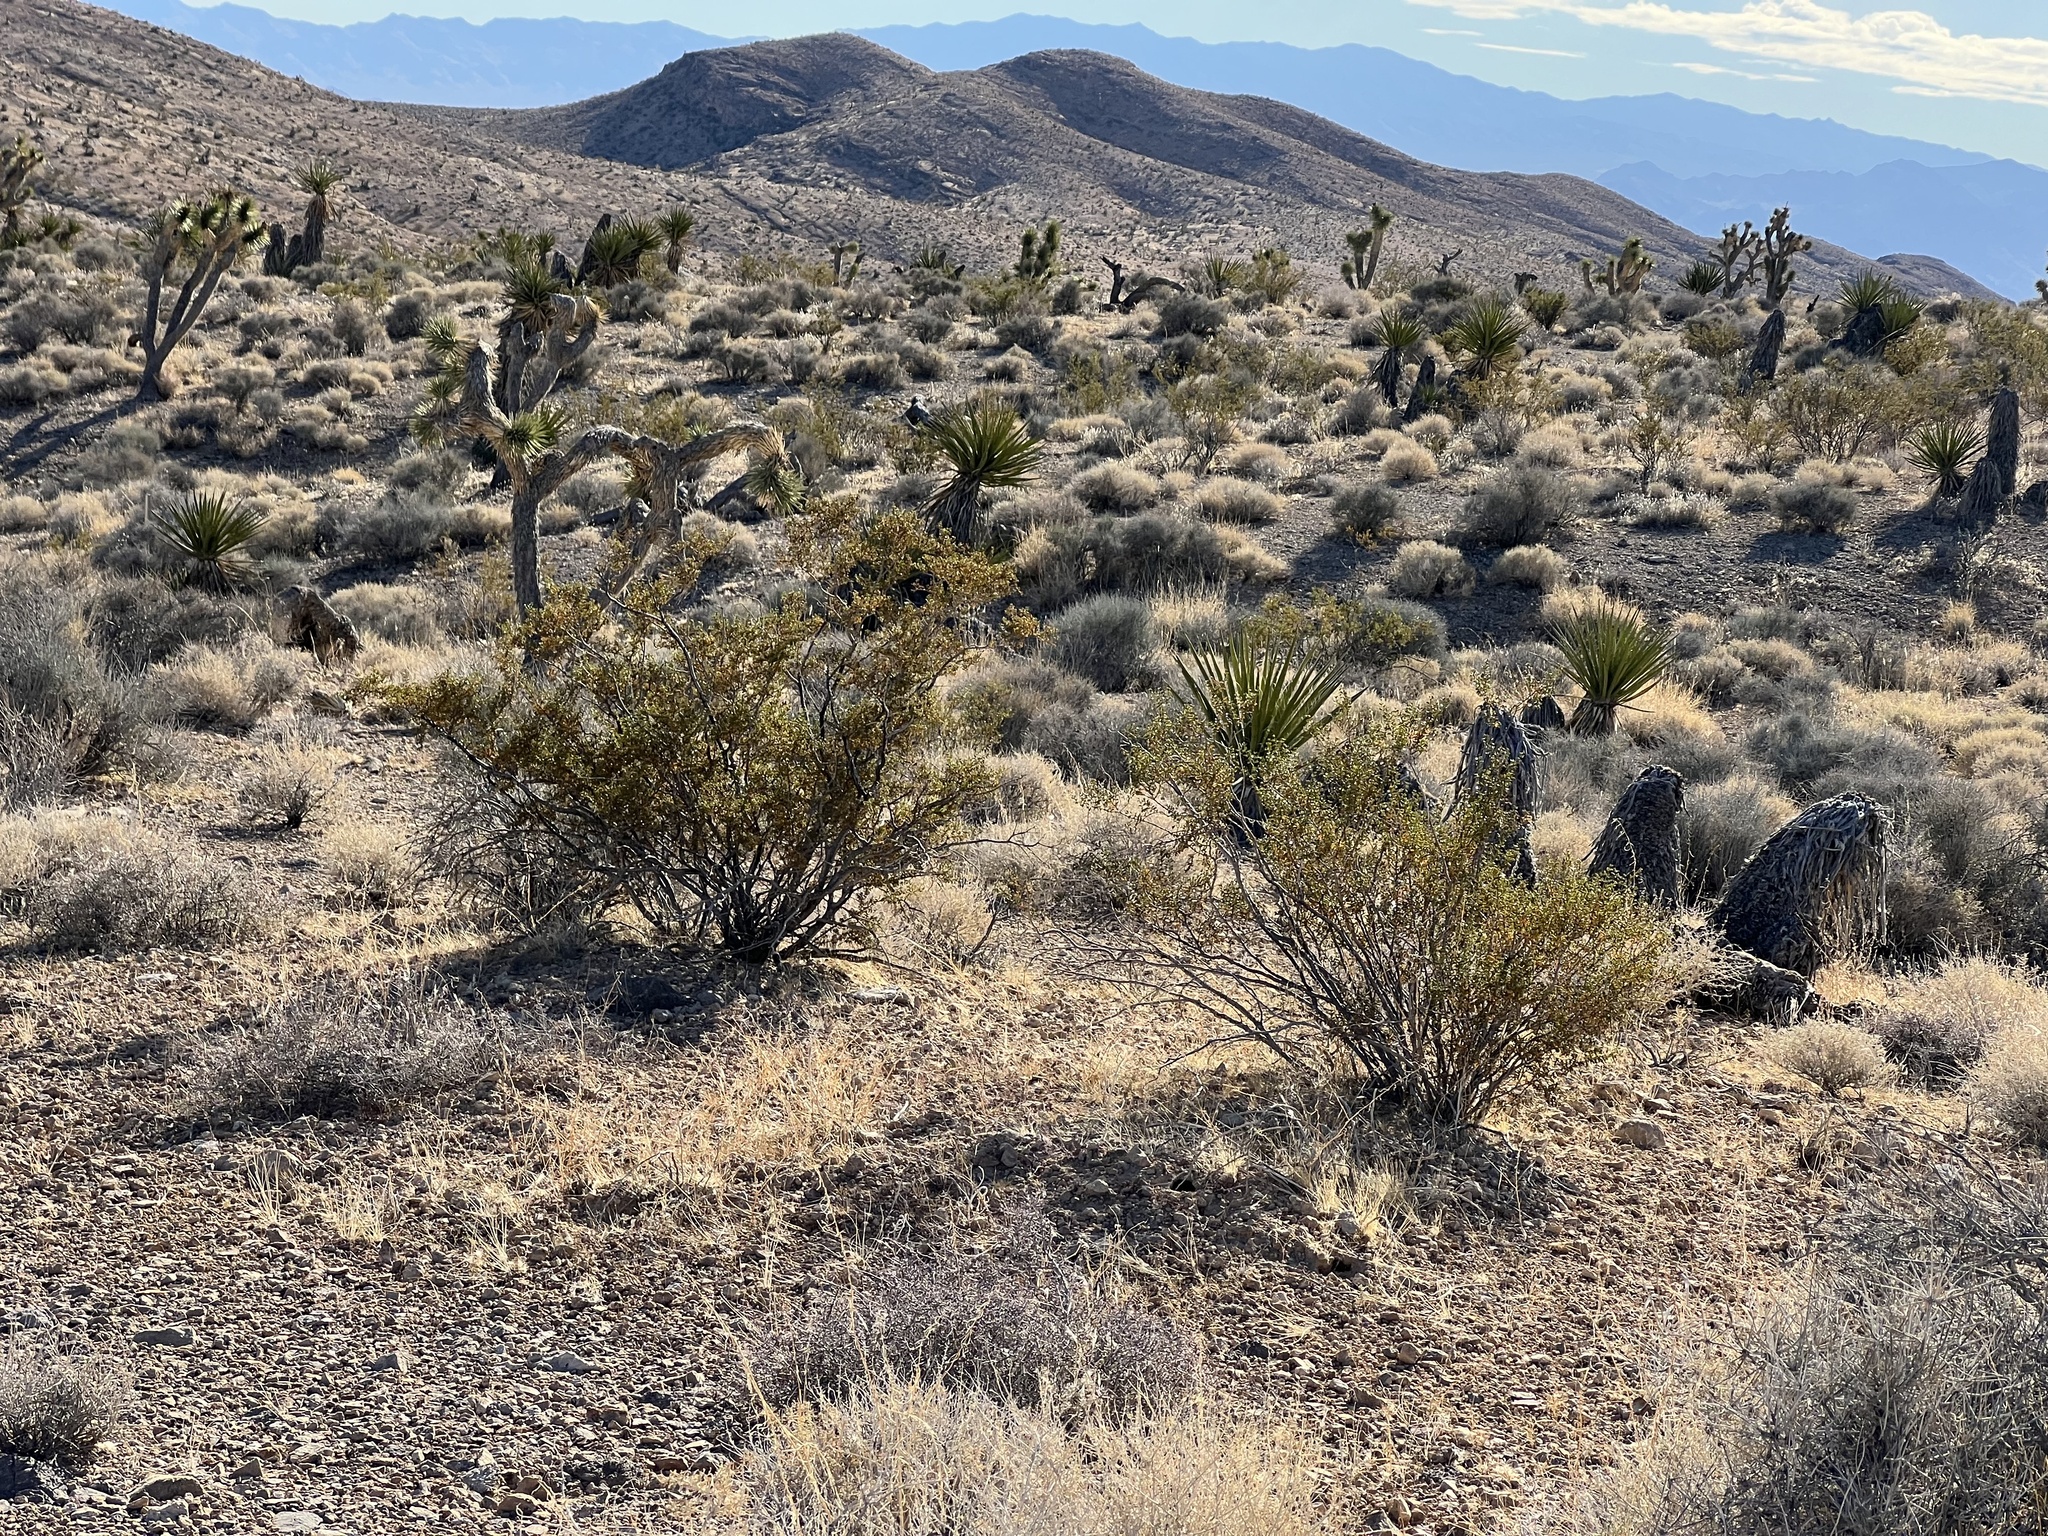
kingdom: Plantae
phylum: Tracheophyta
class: Magnoliopsida
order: Zygophyllales
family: Zygophyllaceae
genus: Larrea
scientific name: Larrea tridentata
